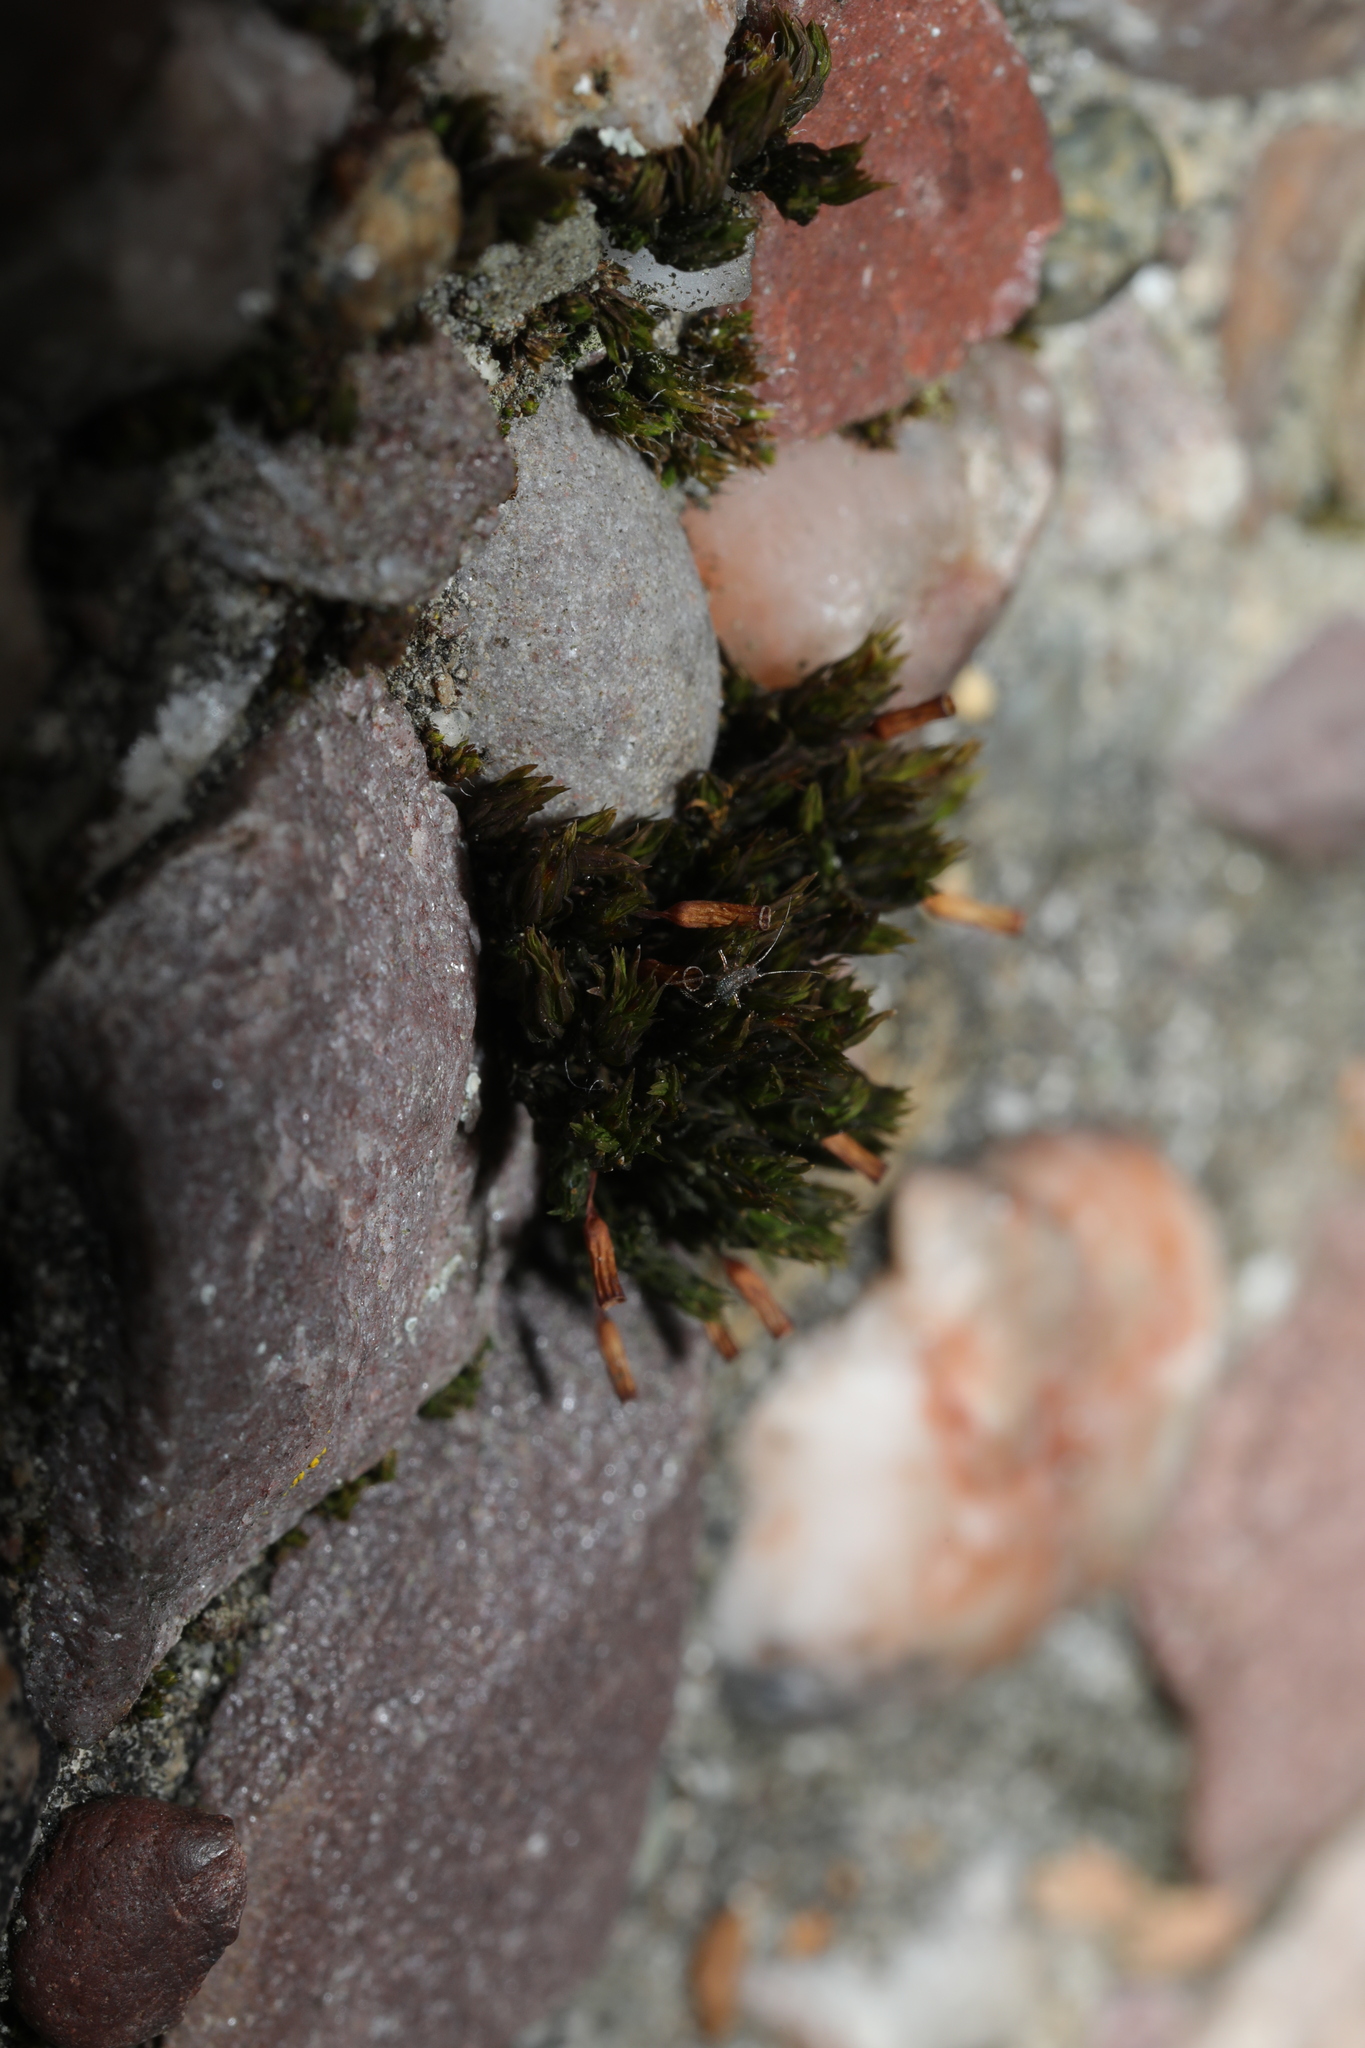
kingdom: Plantae
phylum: Bryophyta
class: Bryopsida
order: Orthotrichales
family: Orthotrichaceae
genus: Orthotrichum
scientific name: Orthotrichum anomalum
